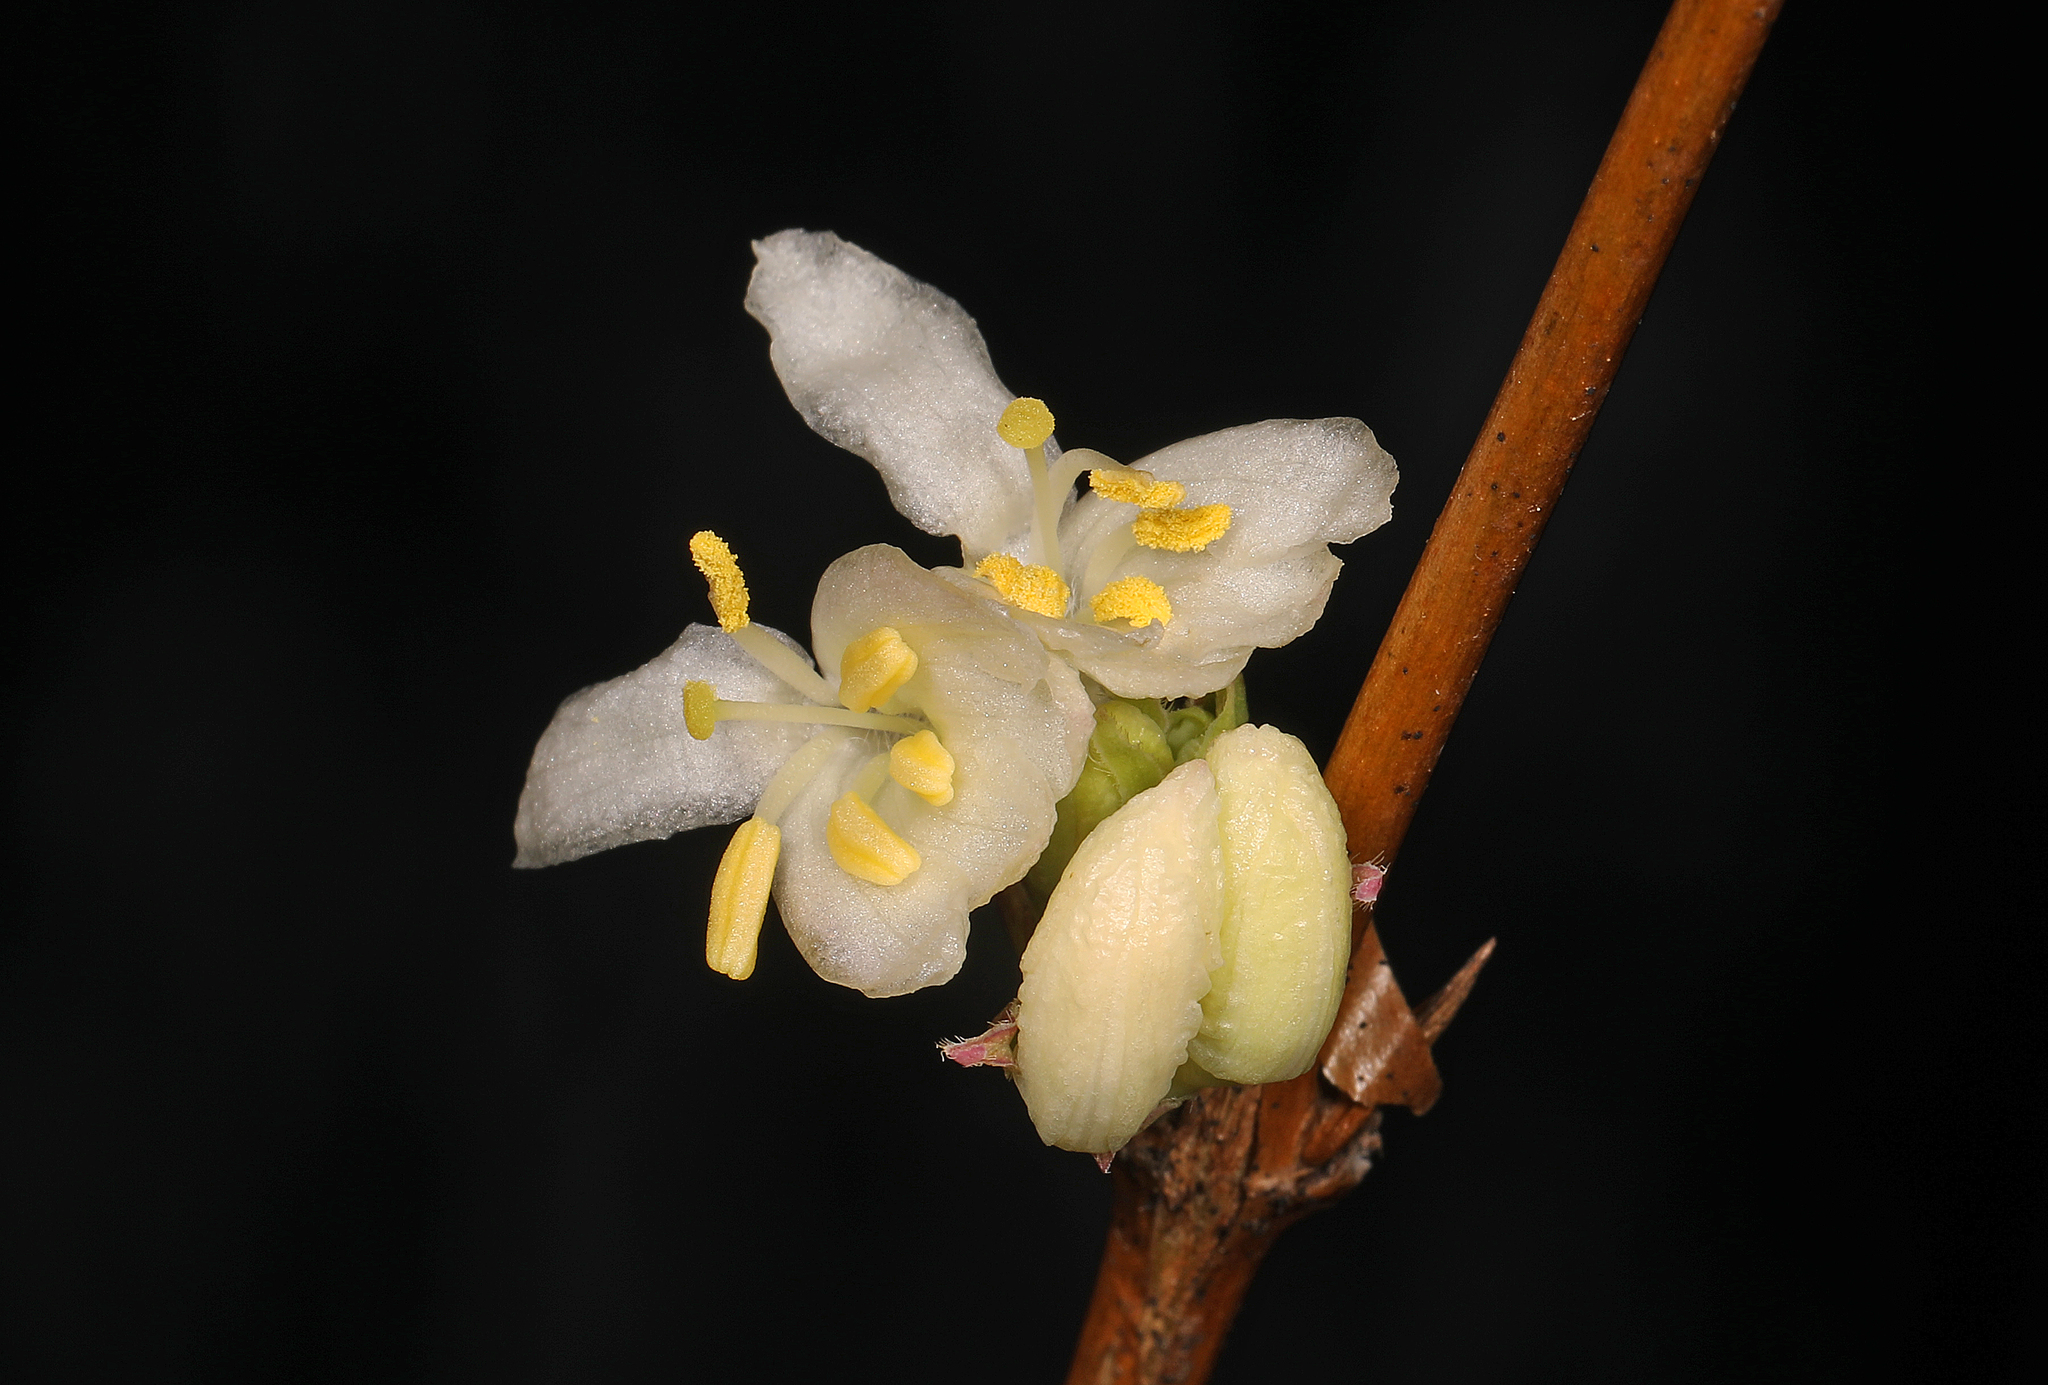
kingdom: Plantae
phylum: Tracheophyta
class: Magnoliopsida
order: Dipsacales
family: Caprifoliaceae
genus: Lonicera
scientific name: Lonicera fragrantissima
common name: Fragrant honeysuckle
